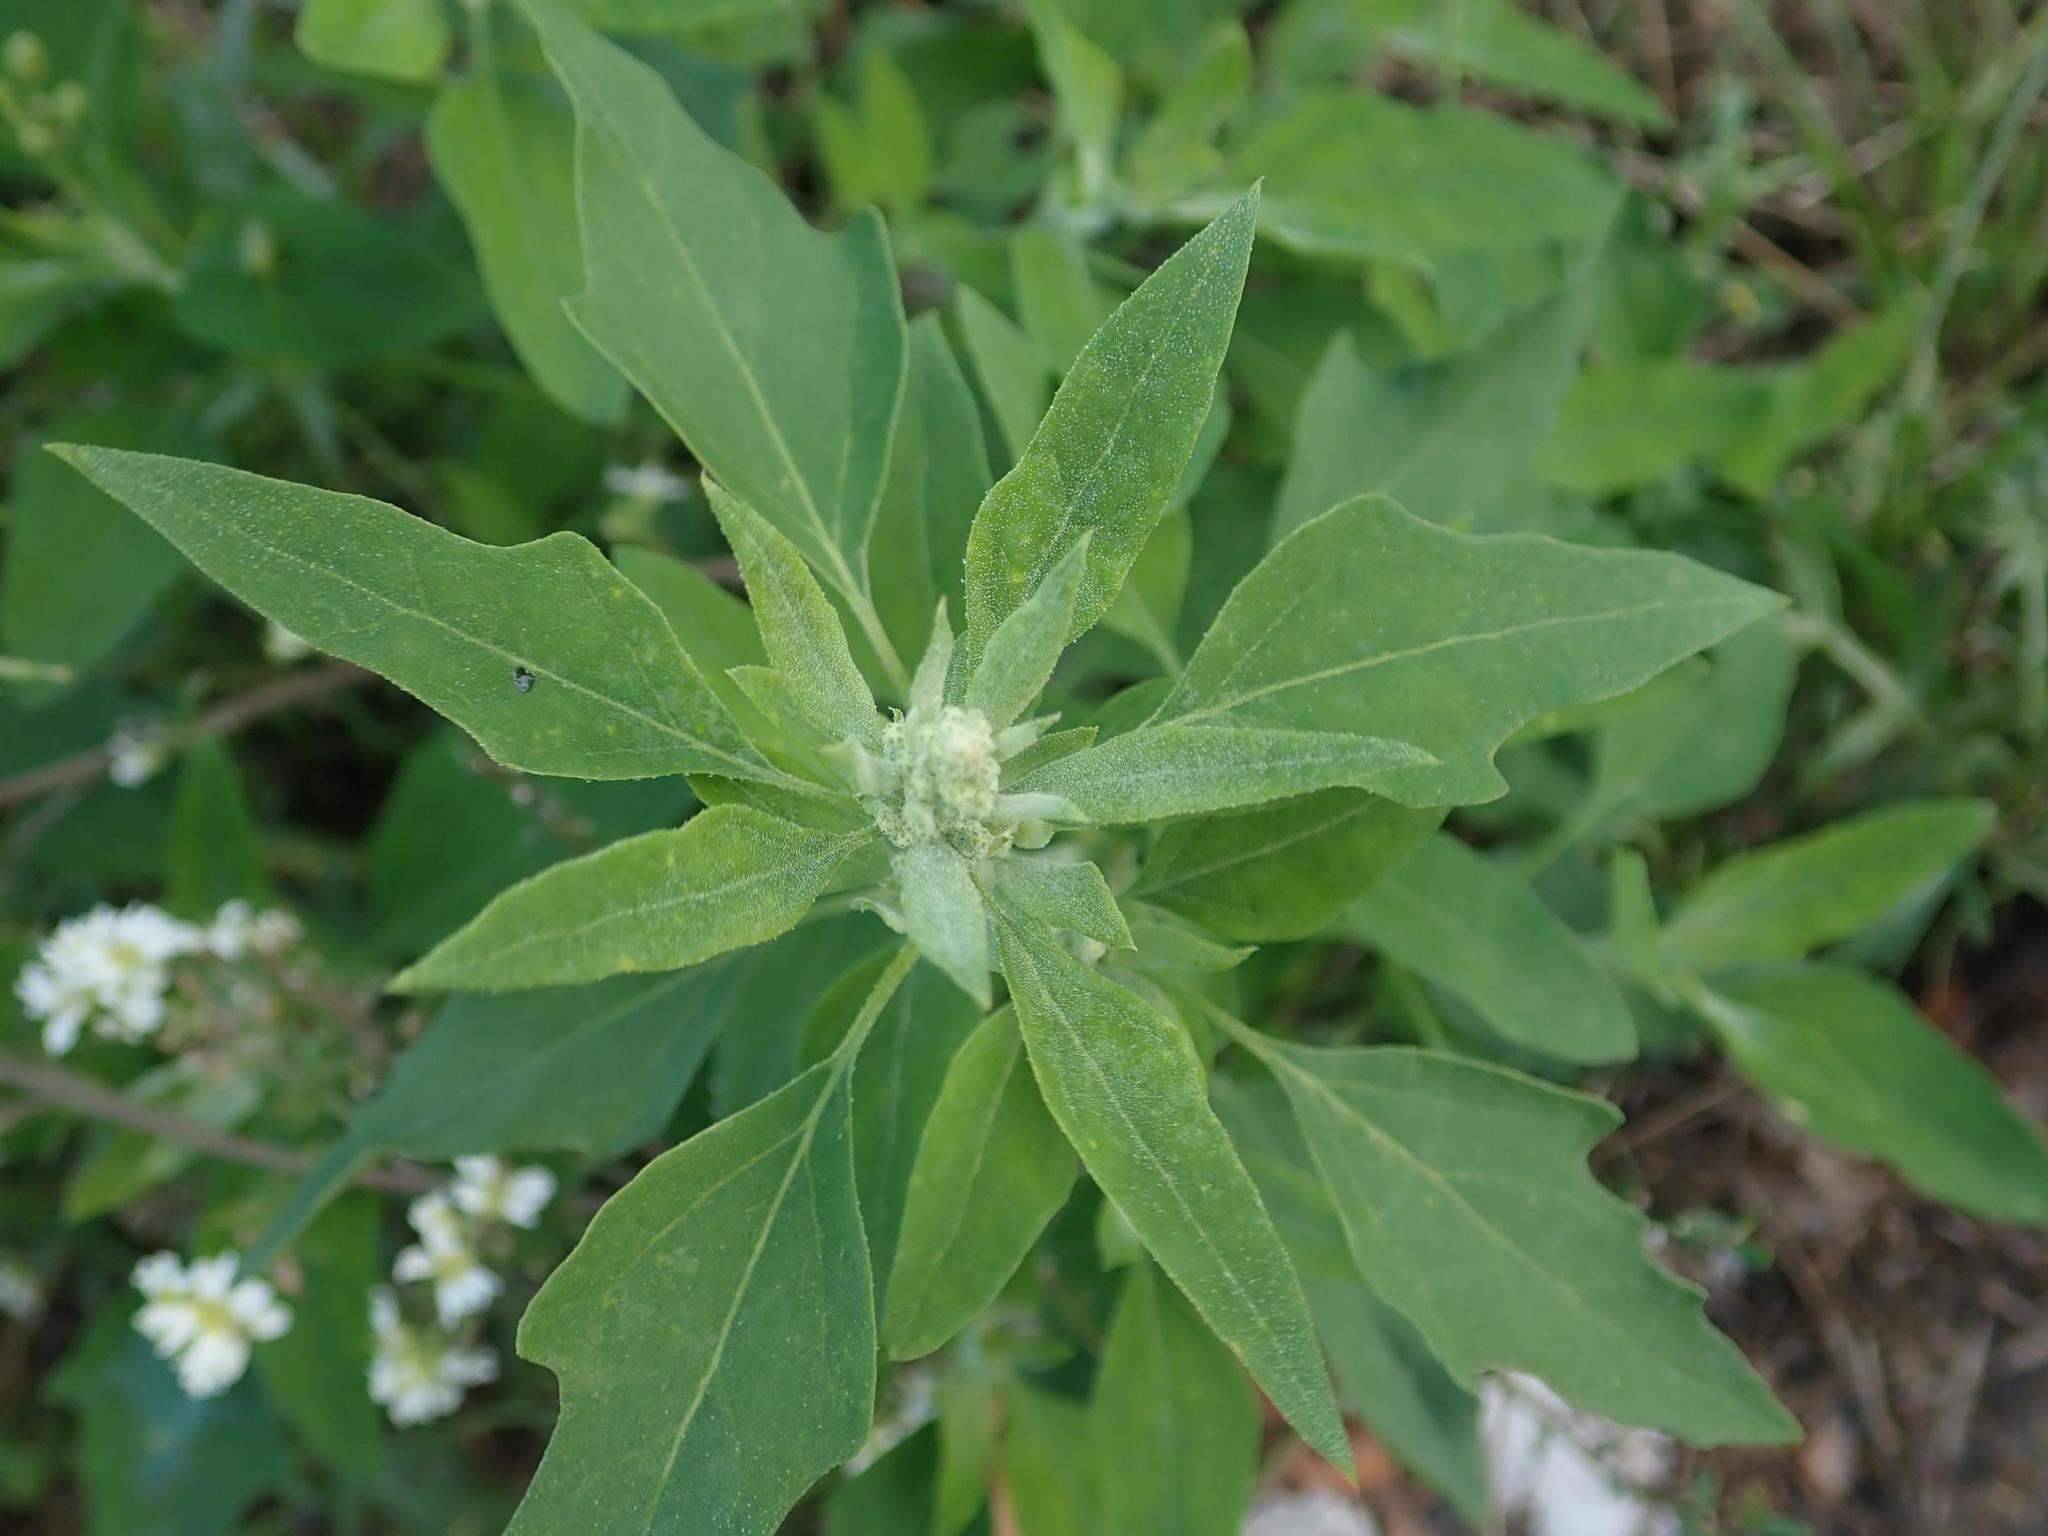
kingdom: Plantae
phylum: Tracheophyta
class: Magnoliopsida
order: Caryophyllales
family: Amaranthaceae
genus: Chenopodium
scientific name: Chenopodium album
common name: Fat-hen
